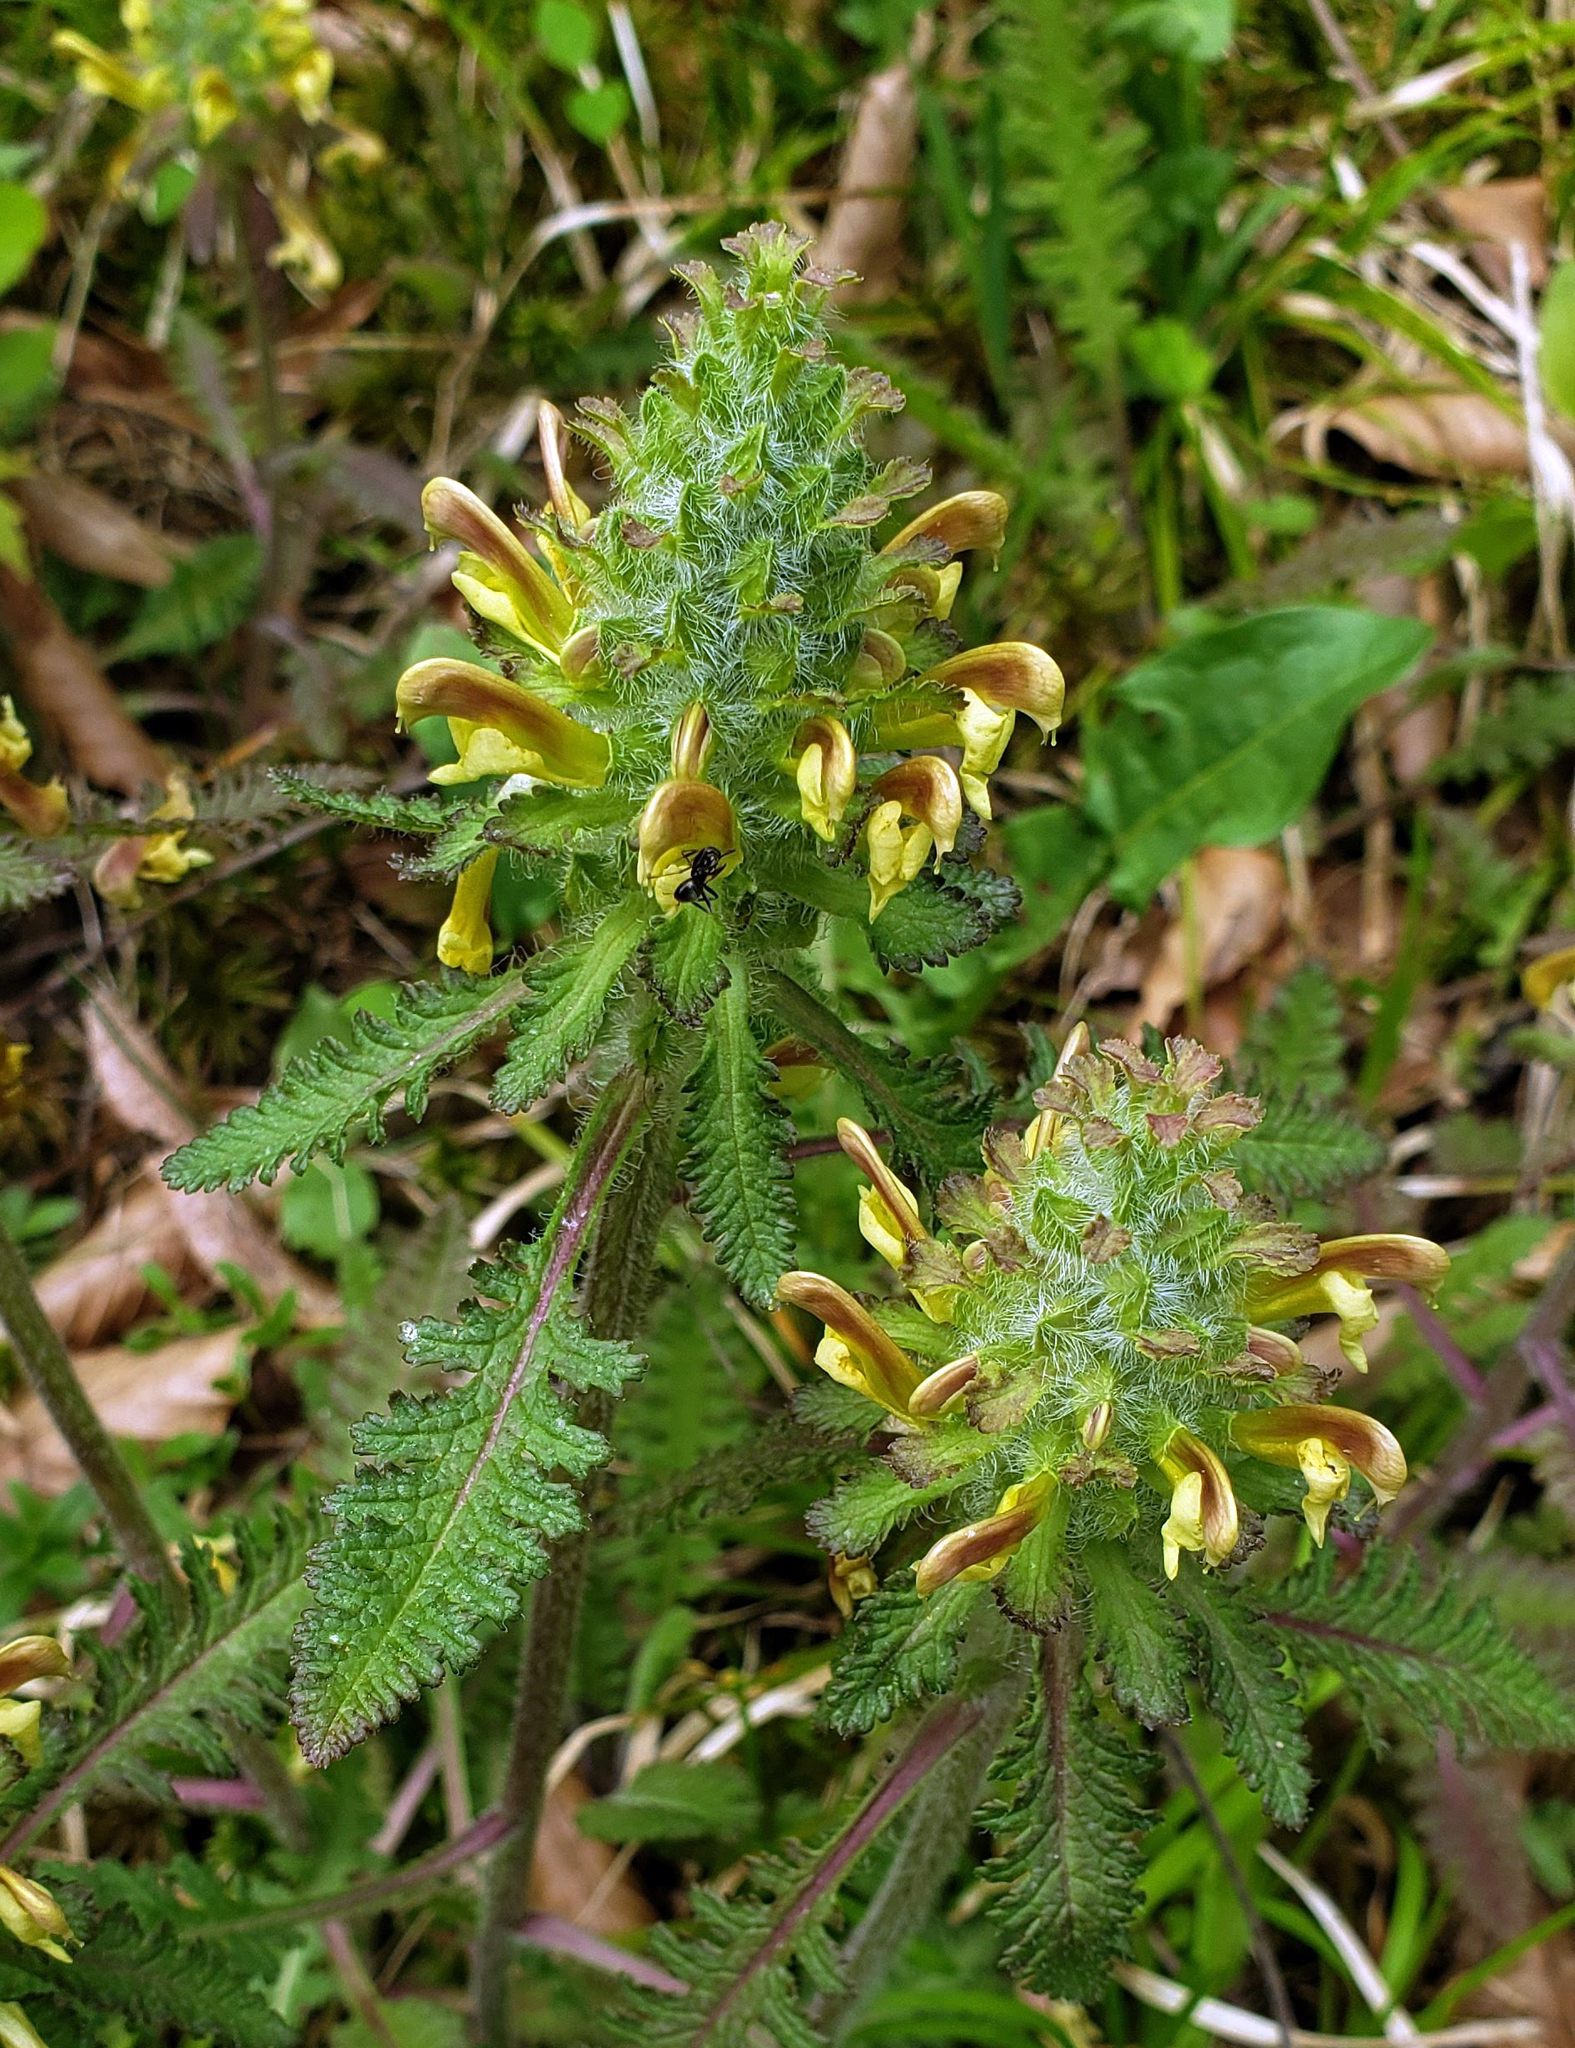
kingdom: Plantae
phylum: Tracheophyta
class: Magnoliopsida
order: Lamiales
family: Orobanchaceae
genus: Pedicularis
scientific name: Pedicularis canadensis
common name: Early lousewort
